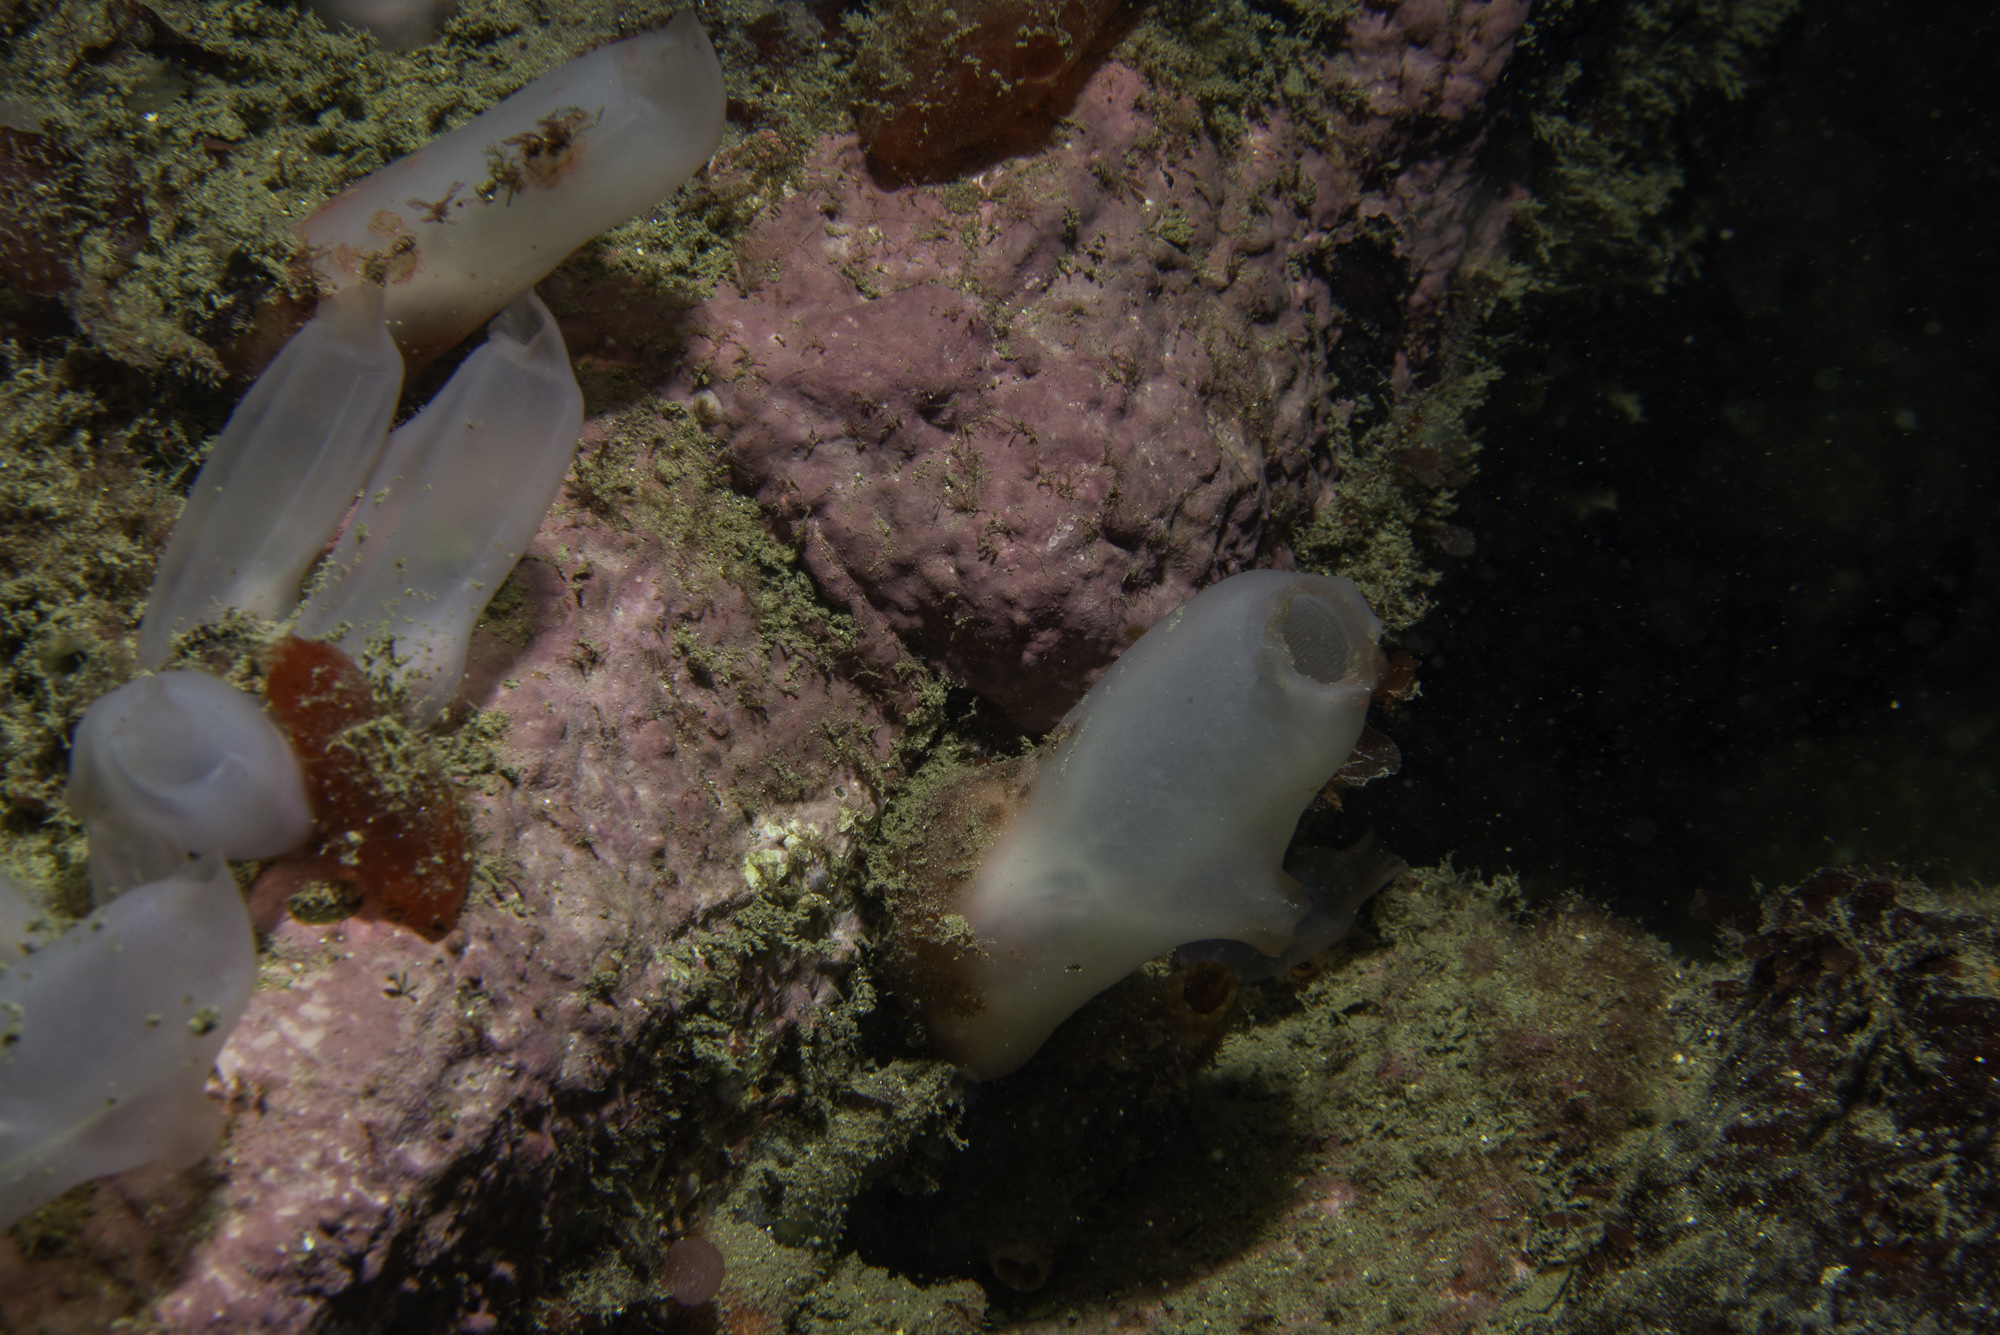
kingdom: Animalia
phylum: Chordata
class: Ascidiacea
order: Phlebobranchia
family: Ascidiidae
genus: Ascidia
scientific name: Ascidia virginea
